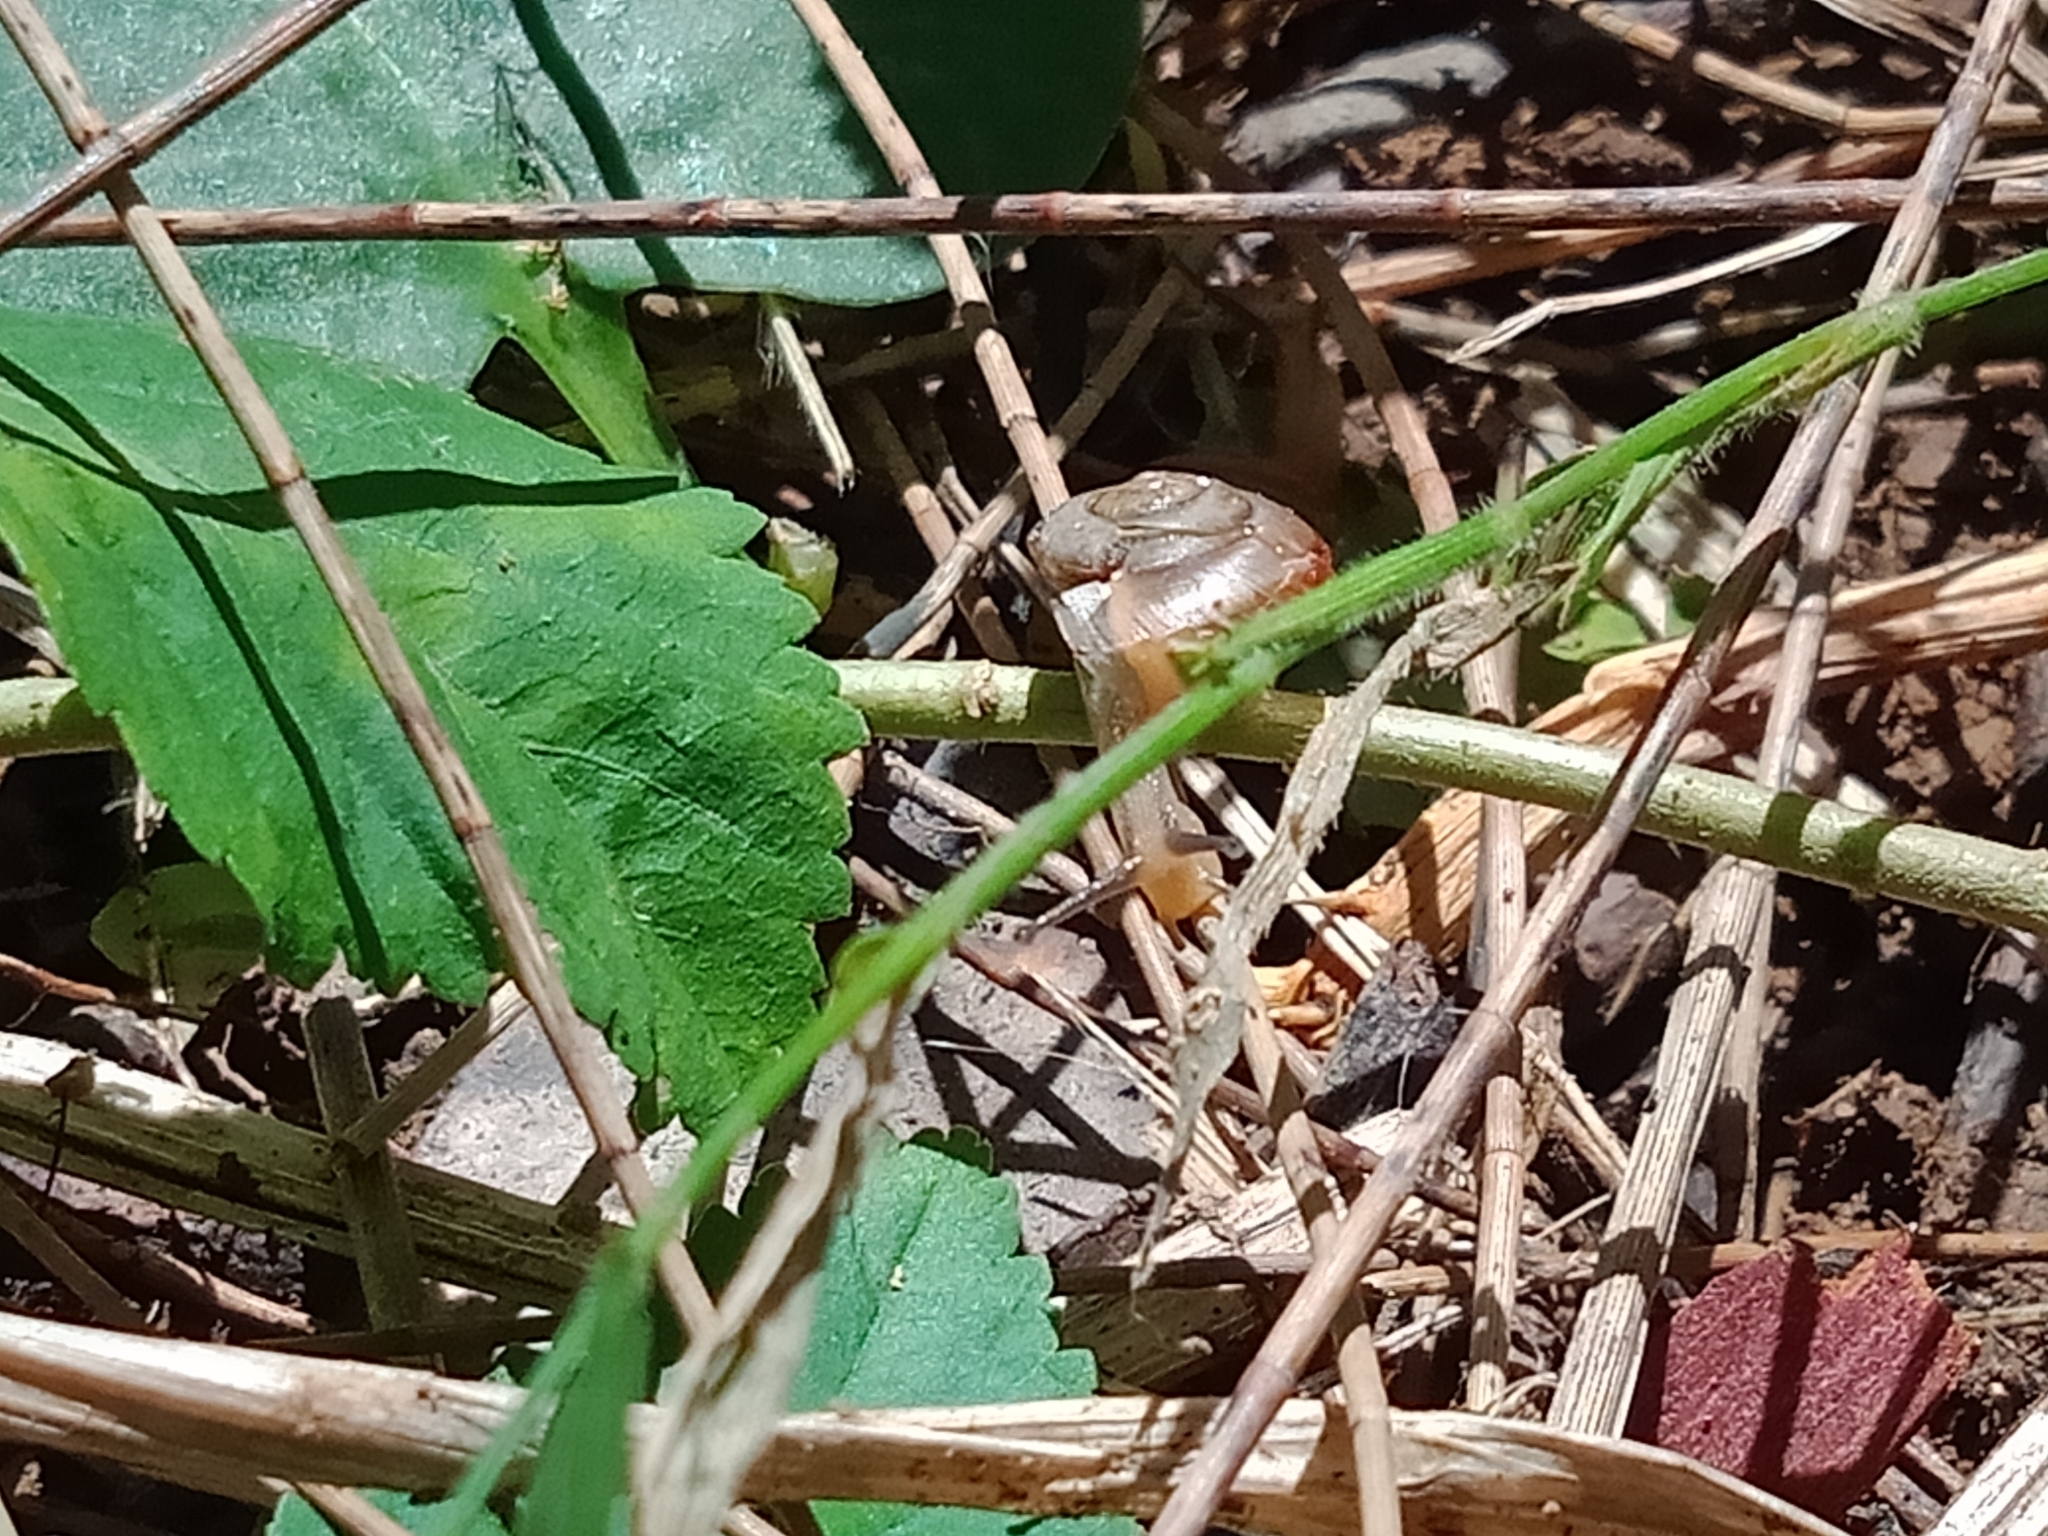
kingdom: Animalia
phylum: Mollusca
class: Gastropoda
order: Stylommatophora
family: Camaenidae
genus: Bradybaena
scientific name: Bradybaena similaris
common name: Asian trampsnail
